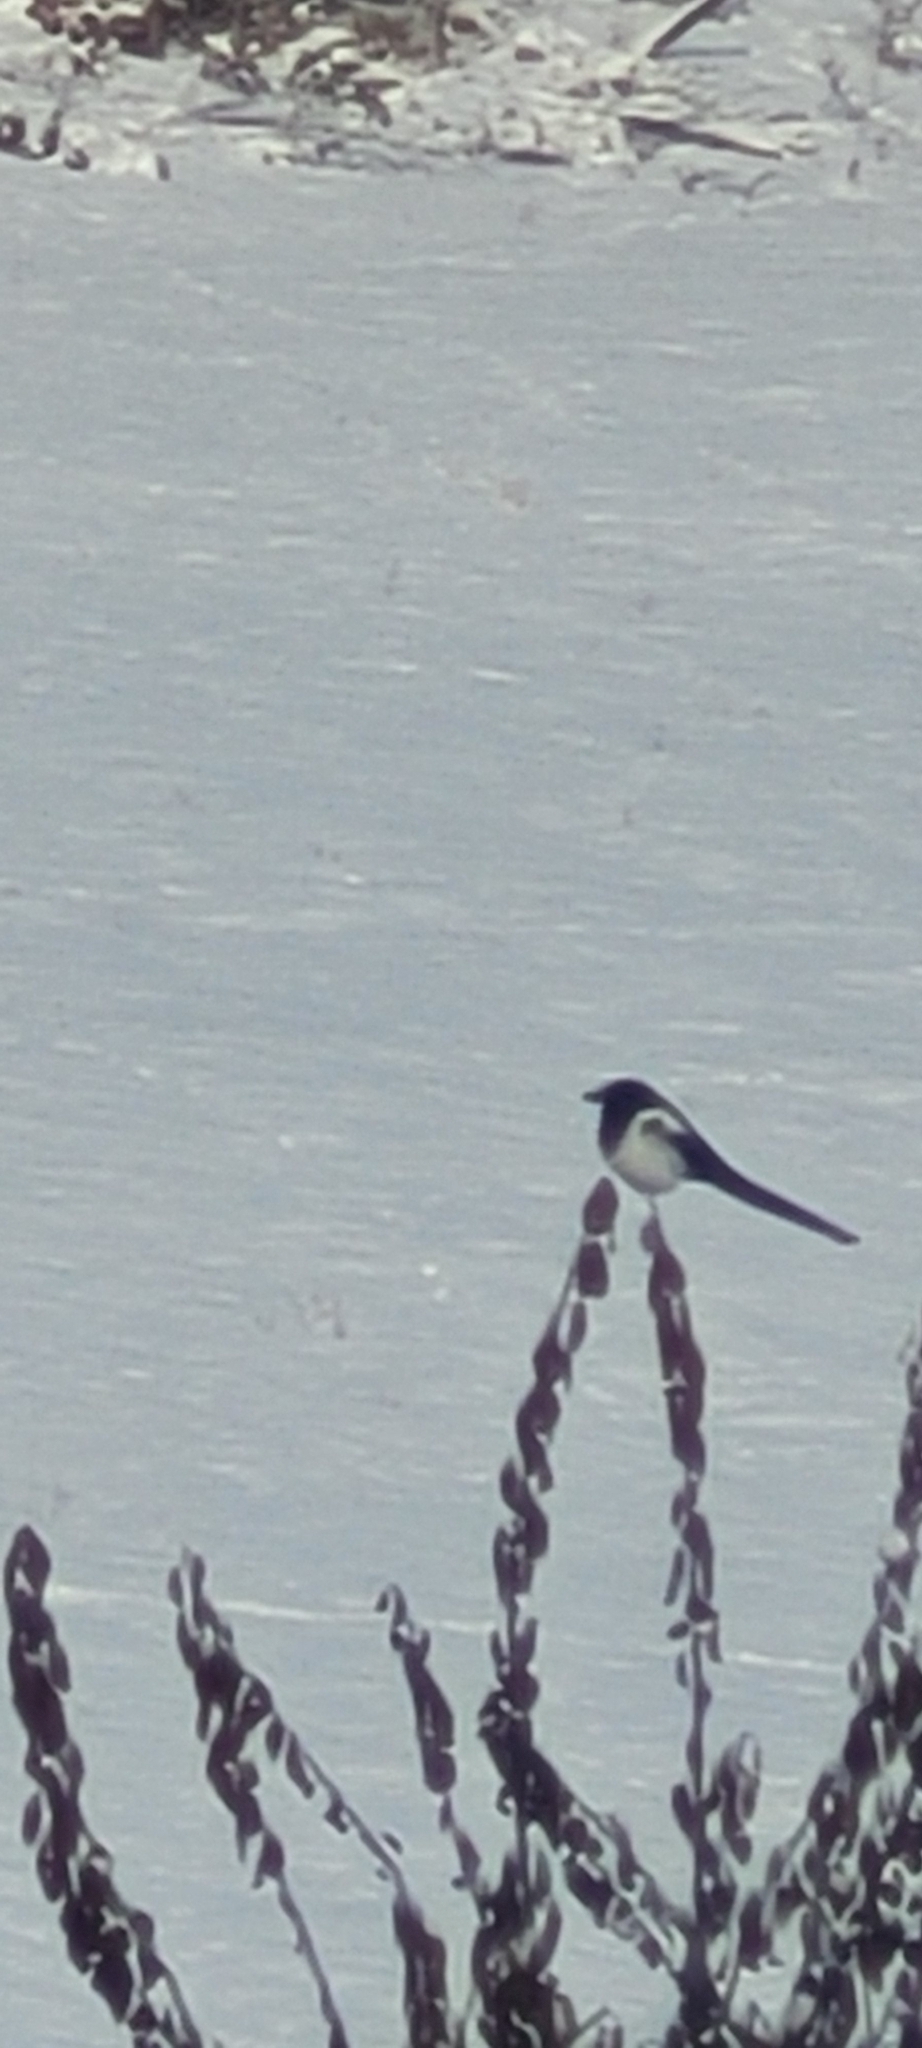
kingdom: Animalia
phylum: Chordata
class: Aves
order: Passeriformes
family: Corvidae
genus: Pica
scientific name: Pica hudsonia
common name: Black-billed magpie
